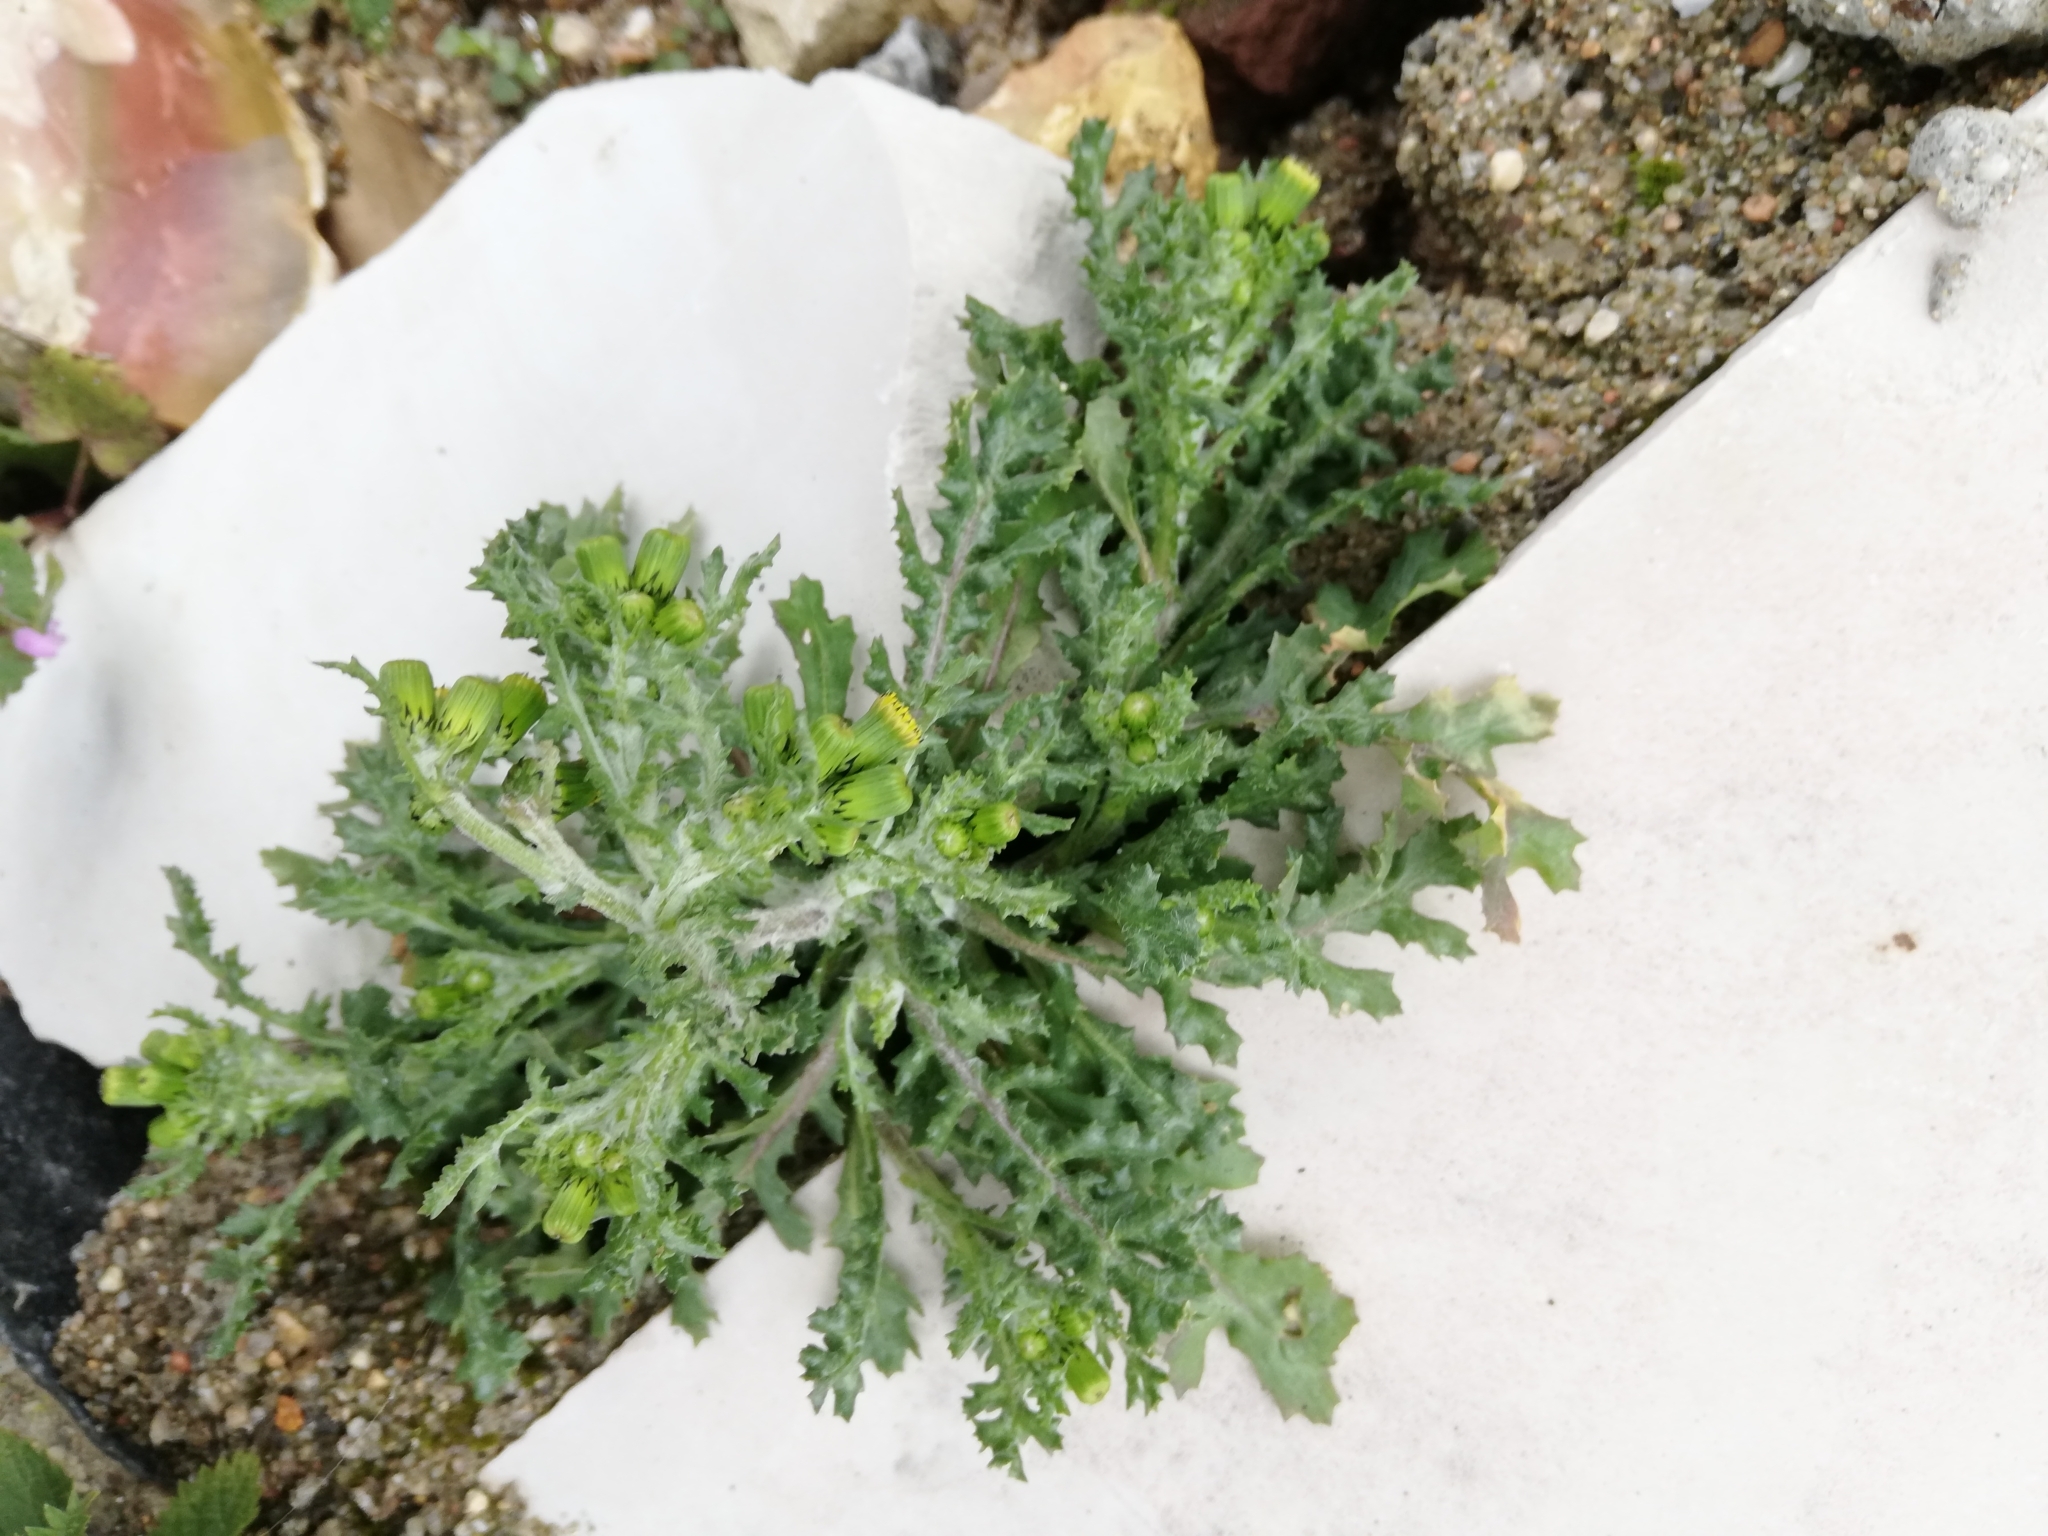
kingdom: Plantae
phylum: Tracheophyta
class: Magnoliopsida
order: Asterales
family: Asteraceae
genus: Senecio
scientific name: Senecio vulgaris
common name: Old-man-in-the-spring
